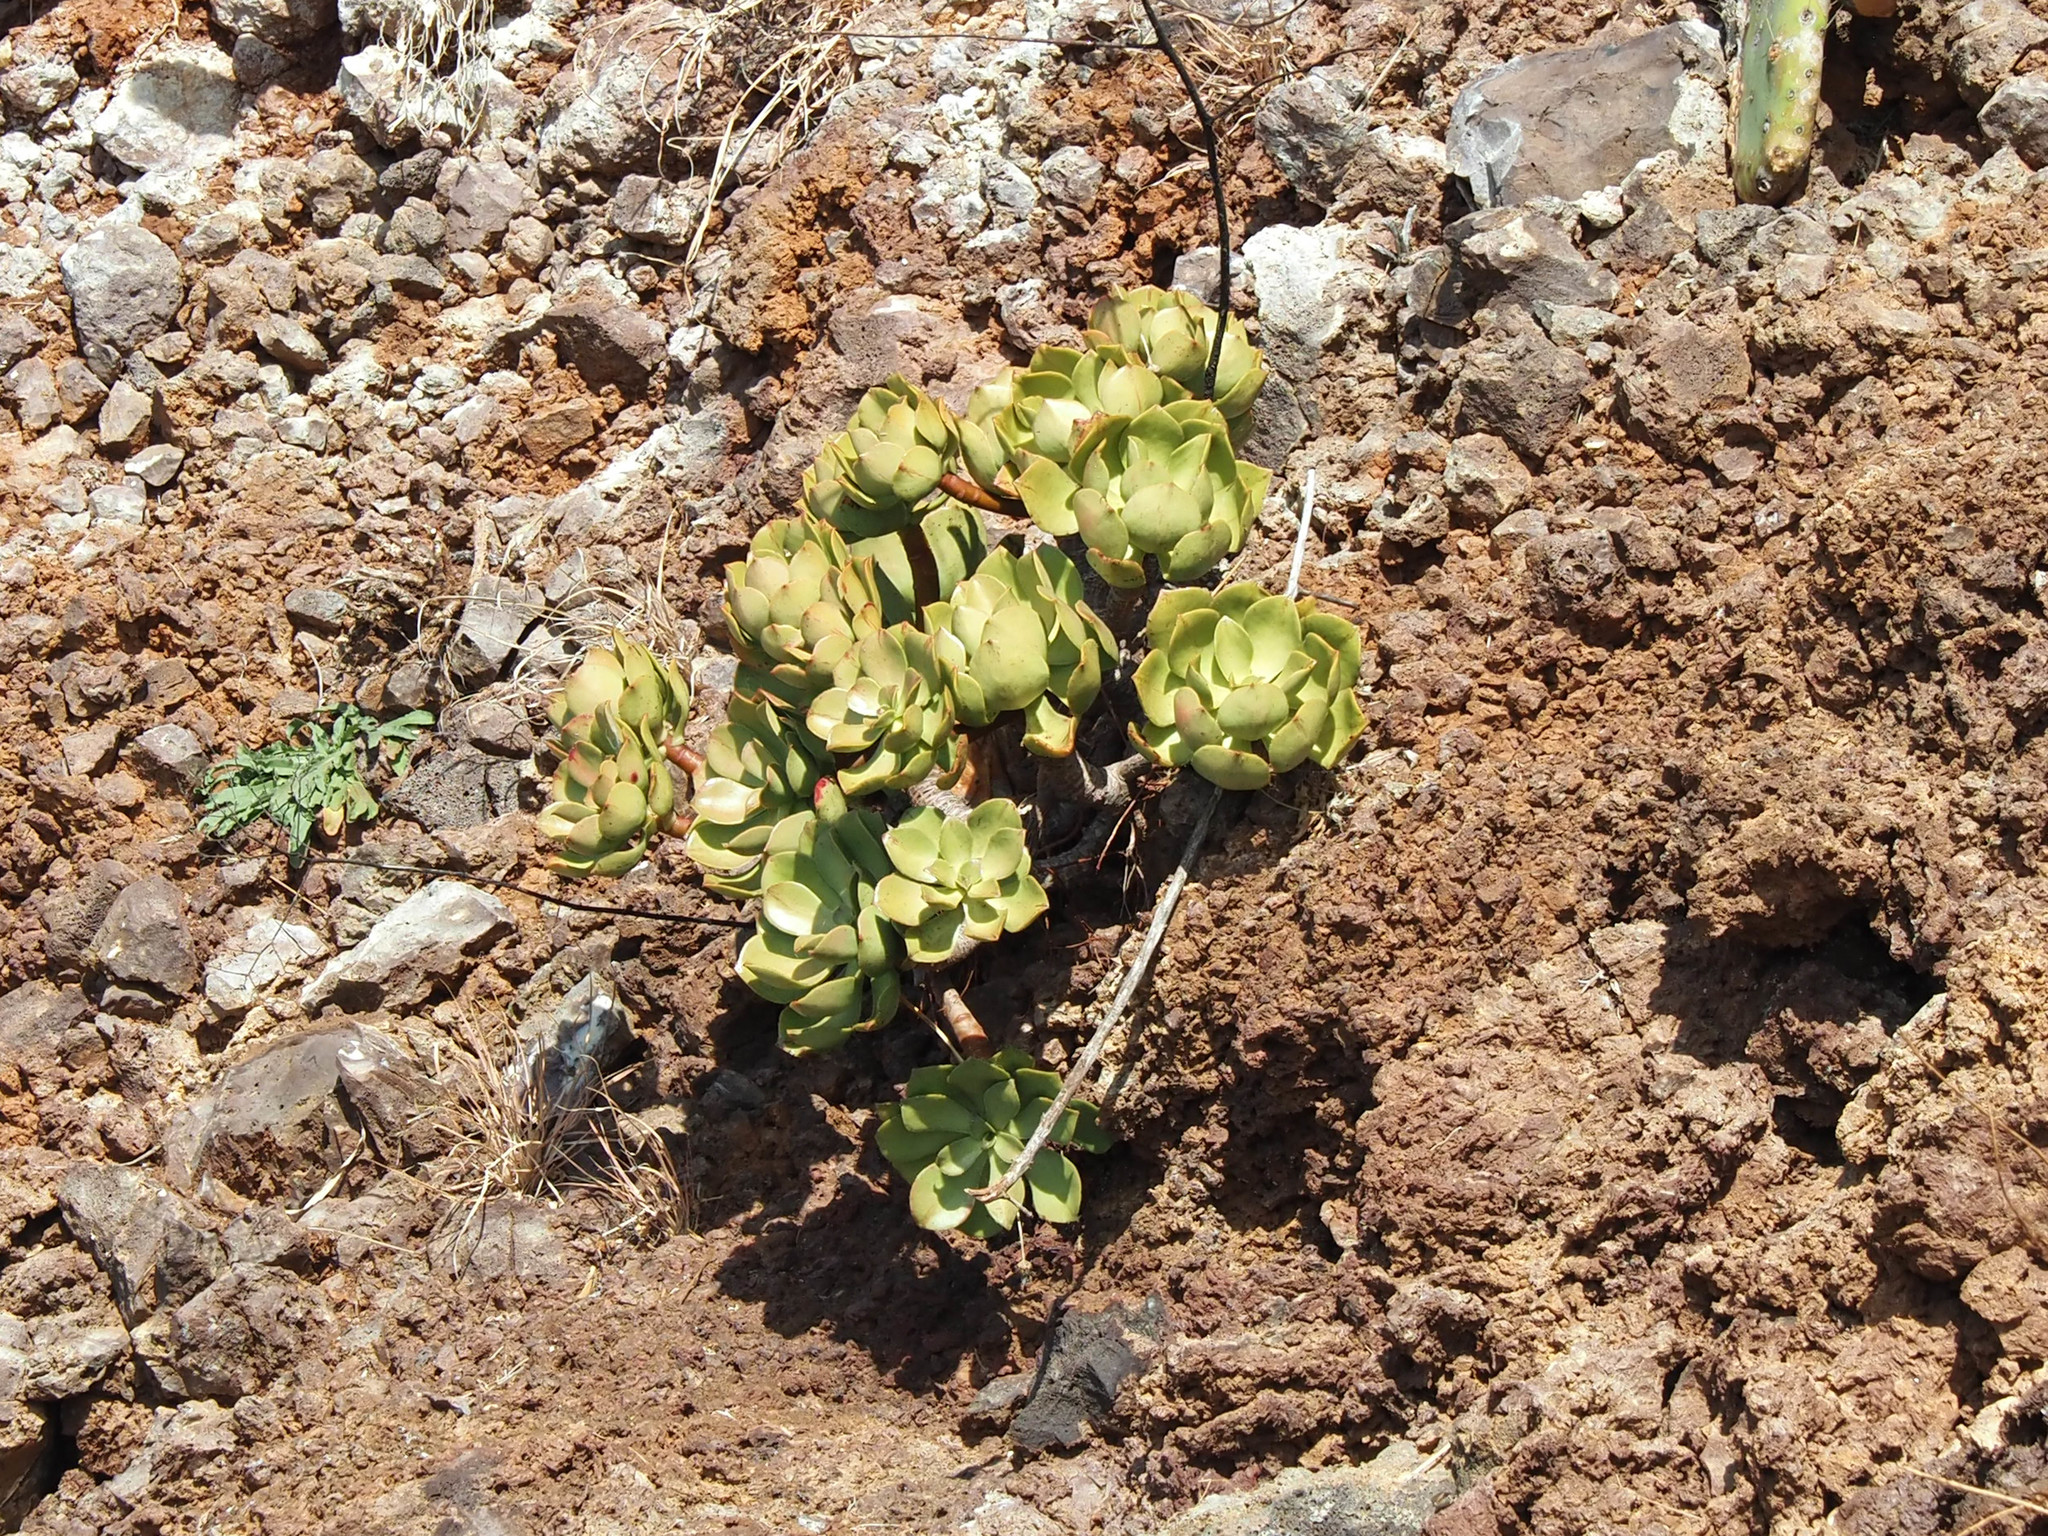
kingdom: Plantae
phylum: Tracheophyta
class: Magnoliopsida
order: Saxifragales
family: Crassulaceae
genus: Aeonium
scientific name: Aeonium glutinosum
